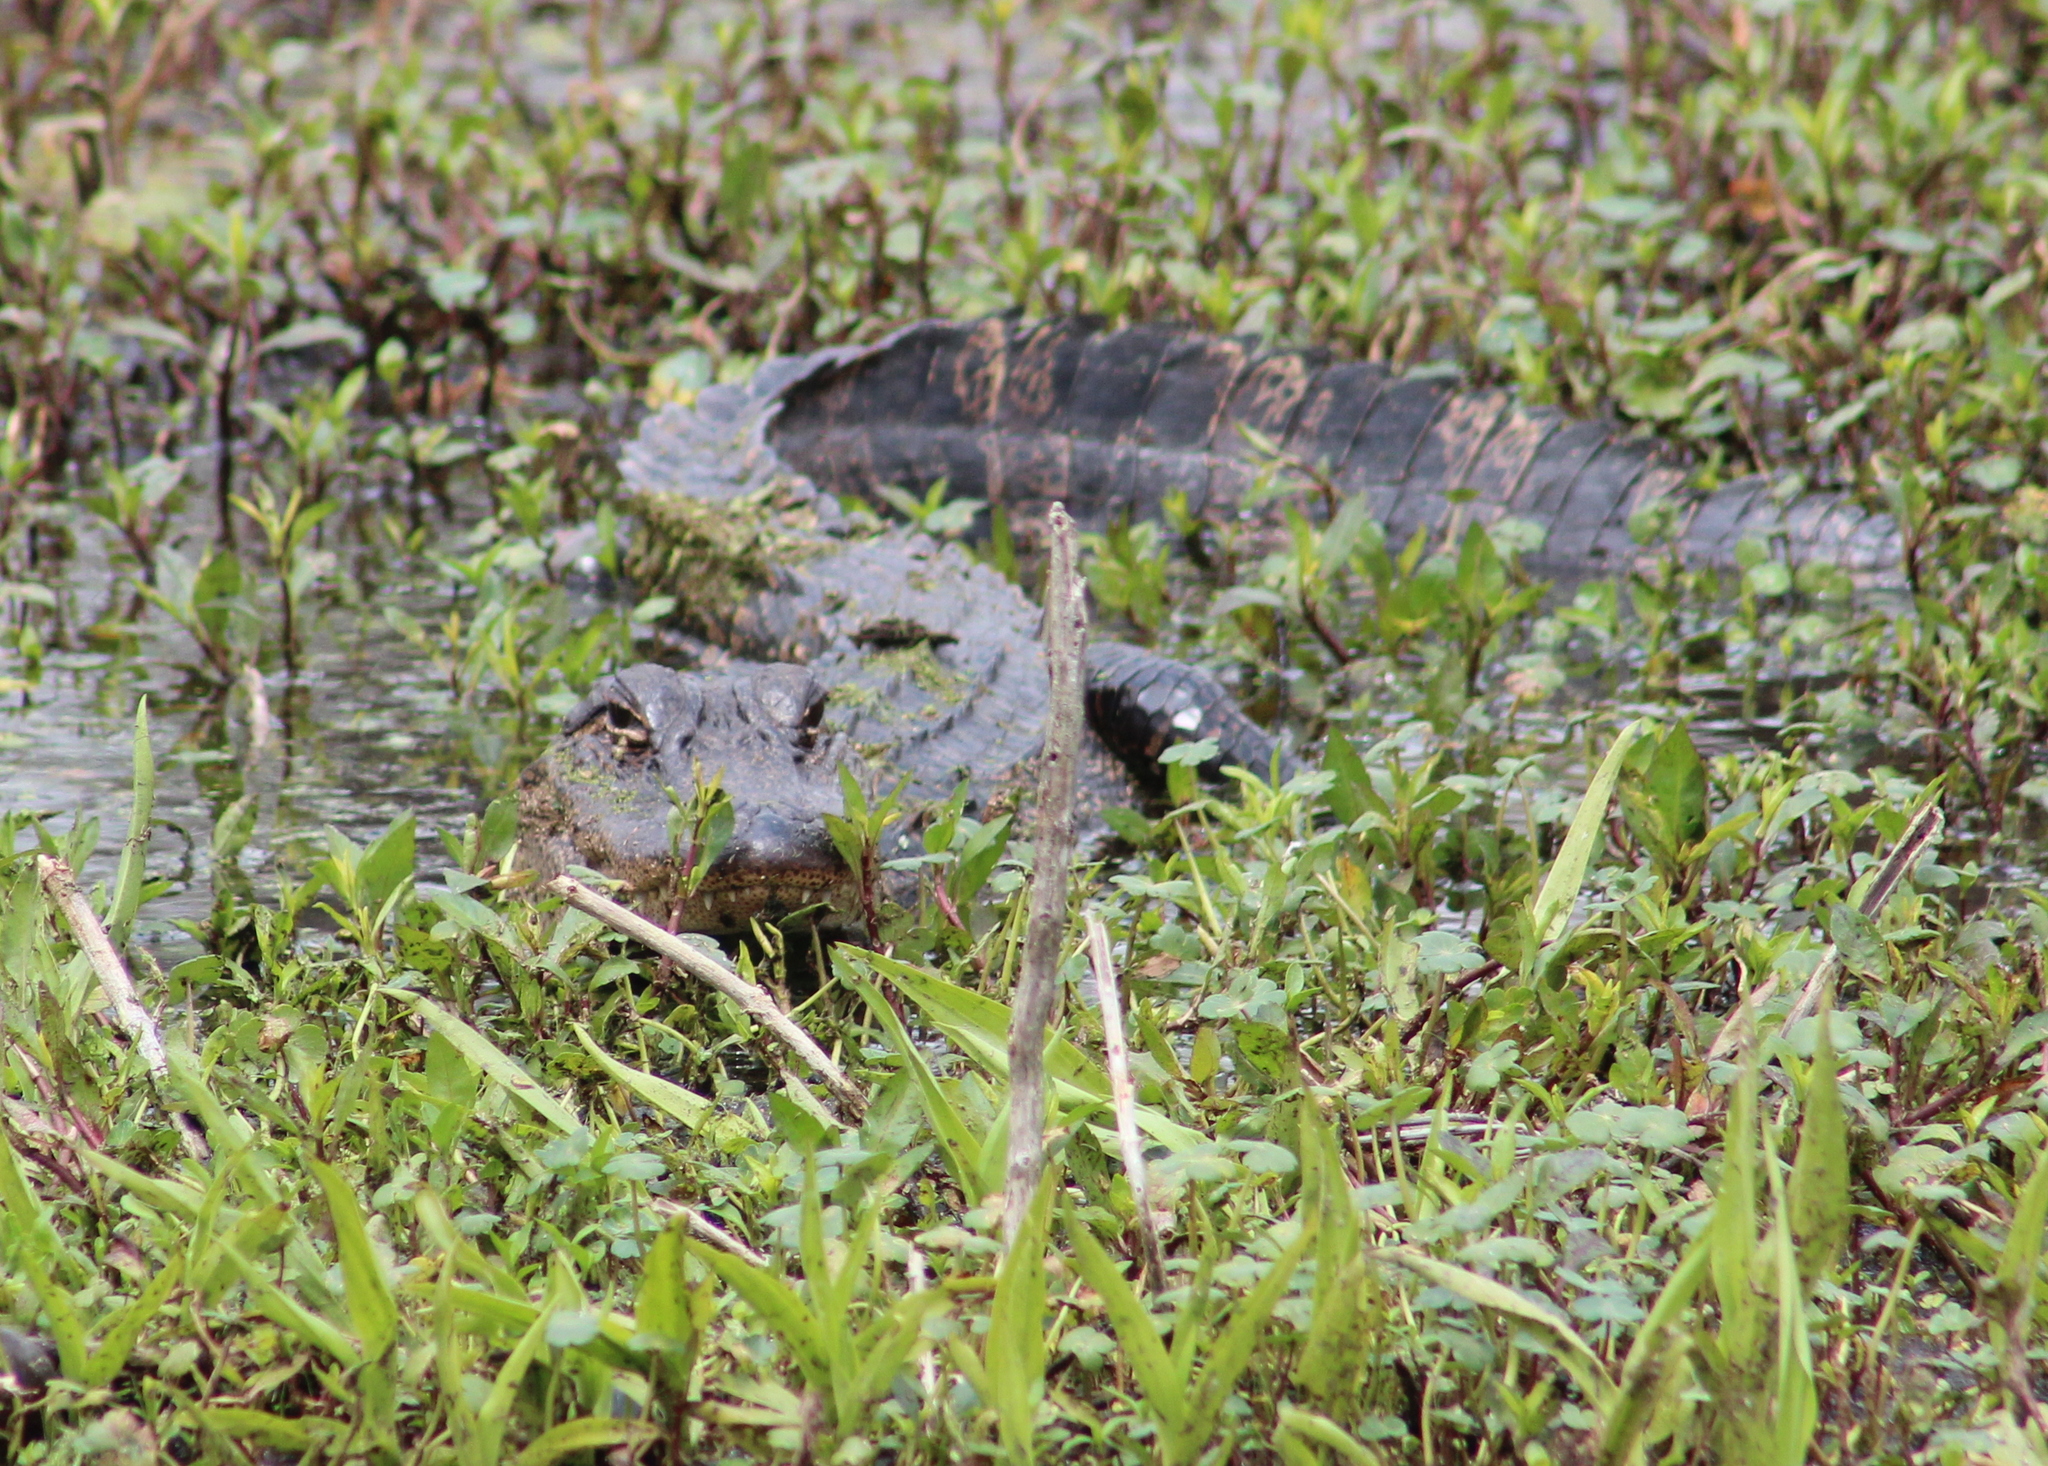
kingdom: Animalia
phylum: Chordata
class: Crocodylia
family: Alligatoridae
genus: Alligator
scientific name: Alligator mississippiensis
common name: American alligator
